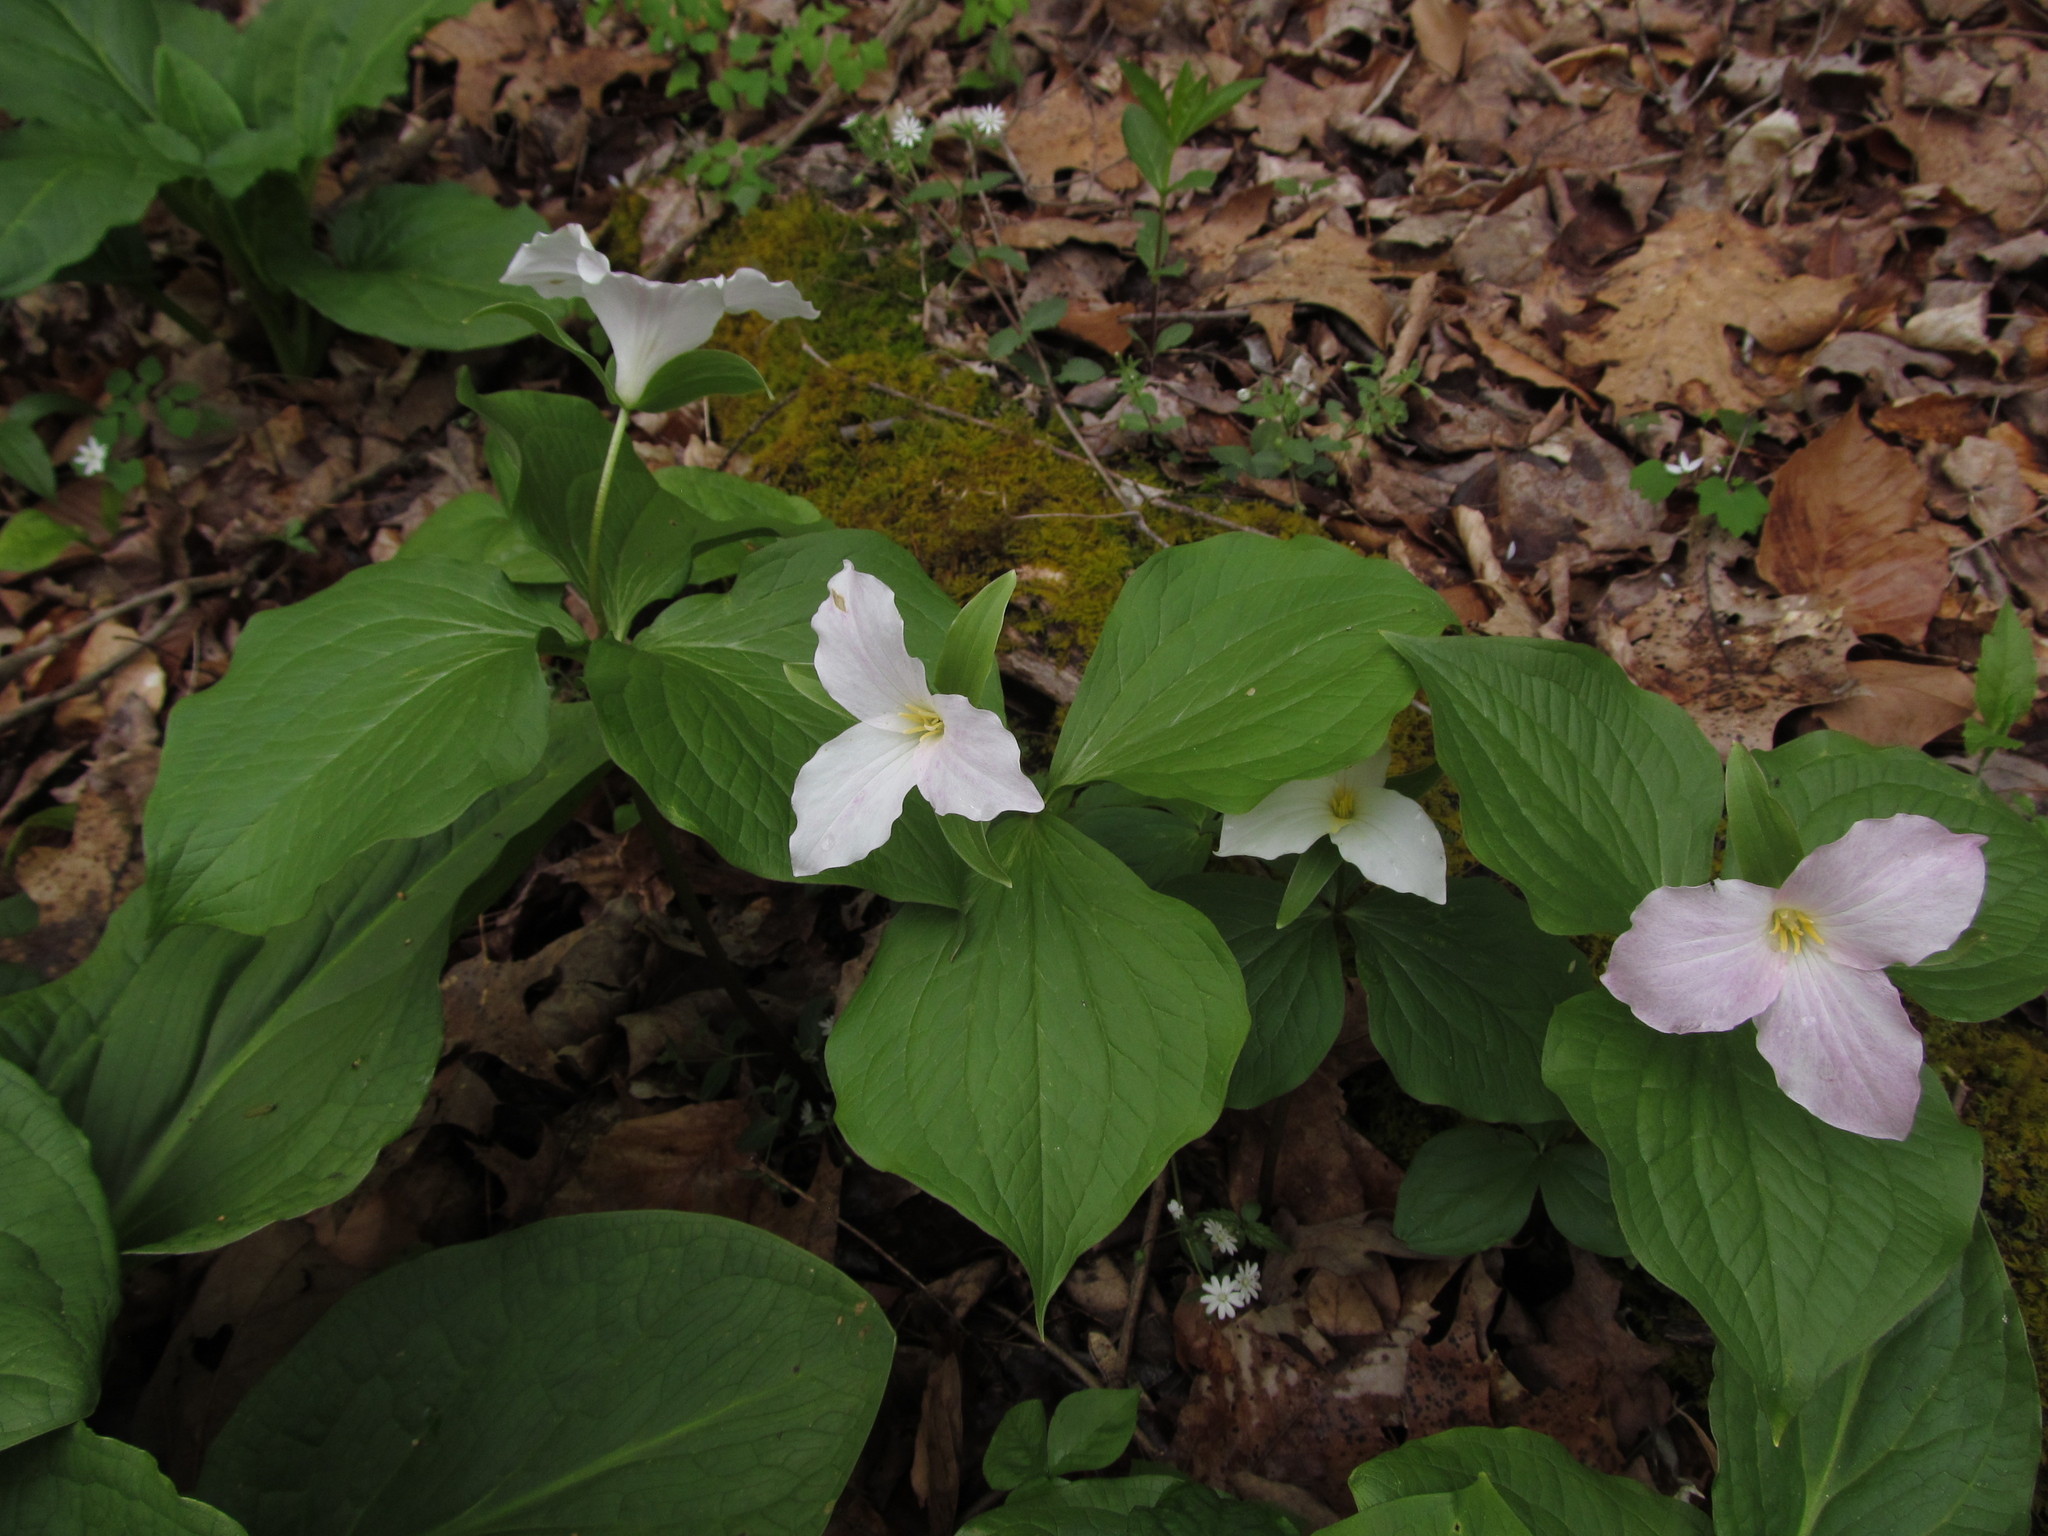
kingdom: Plantae
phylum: Tracheophyta
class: Liliopsida
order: Liliales
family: Melanthiaceae
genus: Trillium
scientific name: Trillium grandiflorum
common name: Great white trillium
